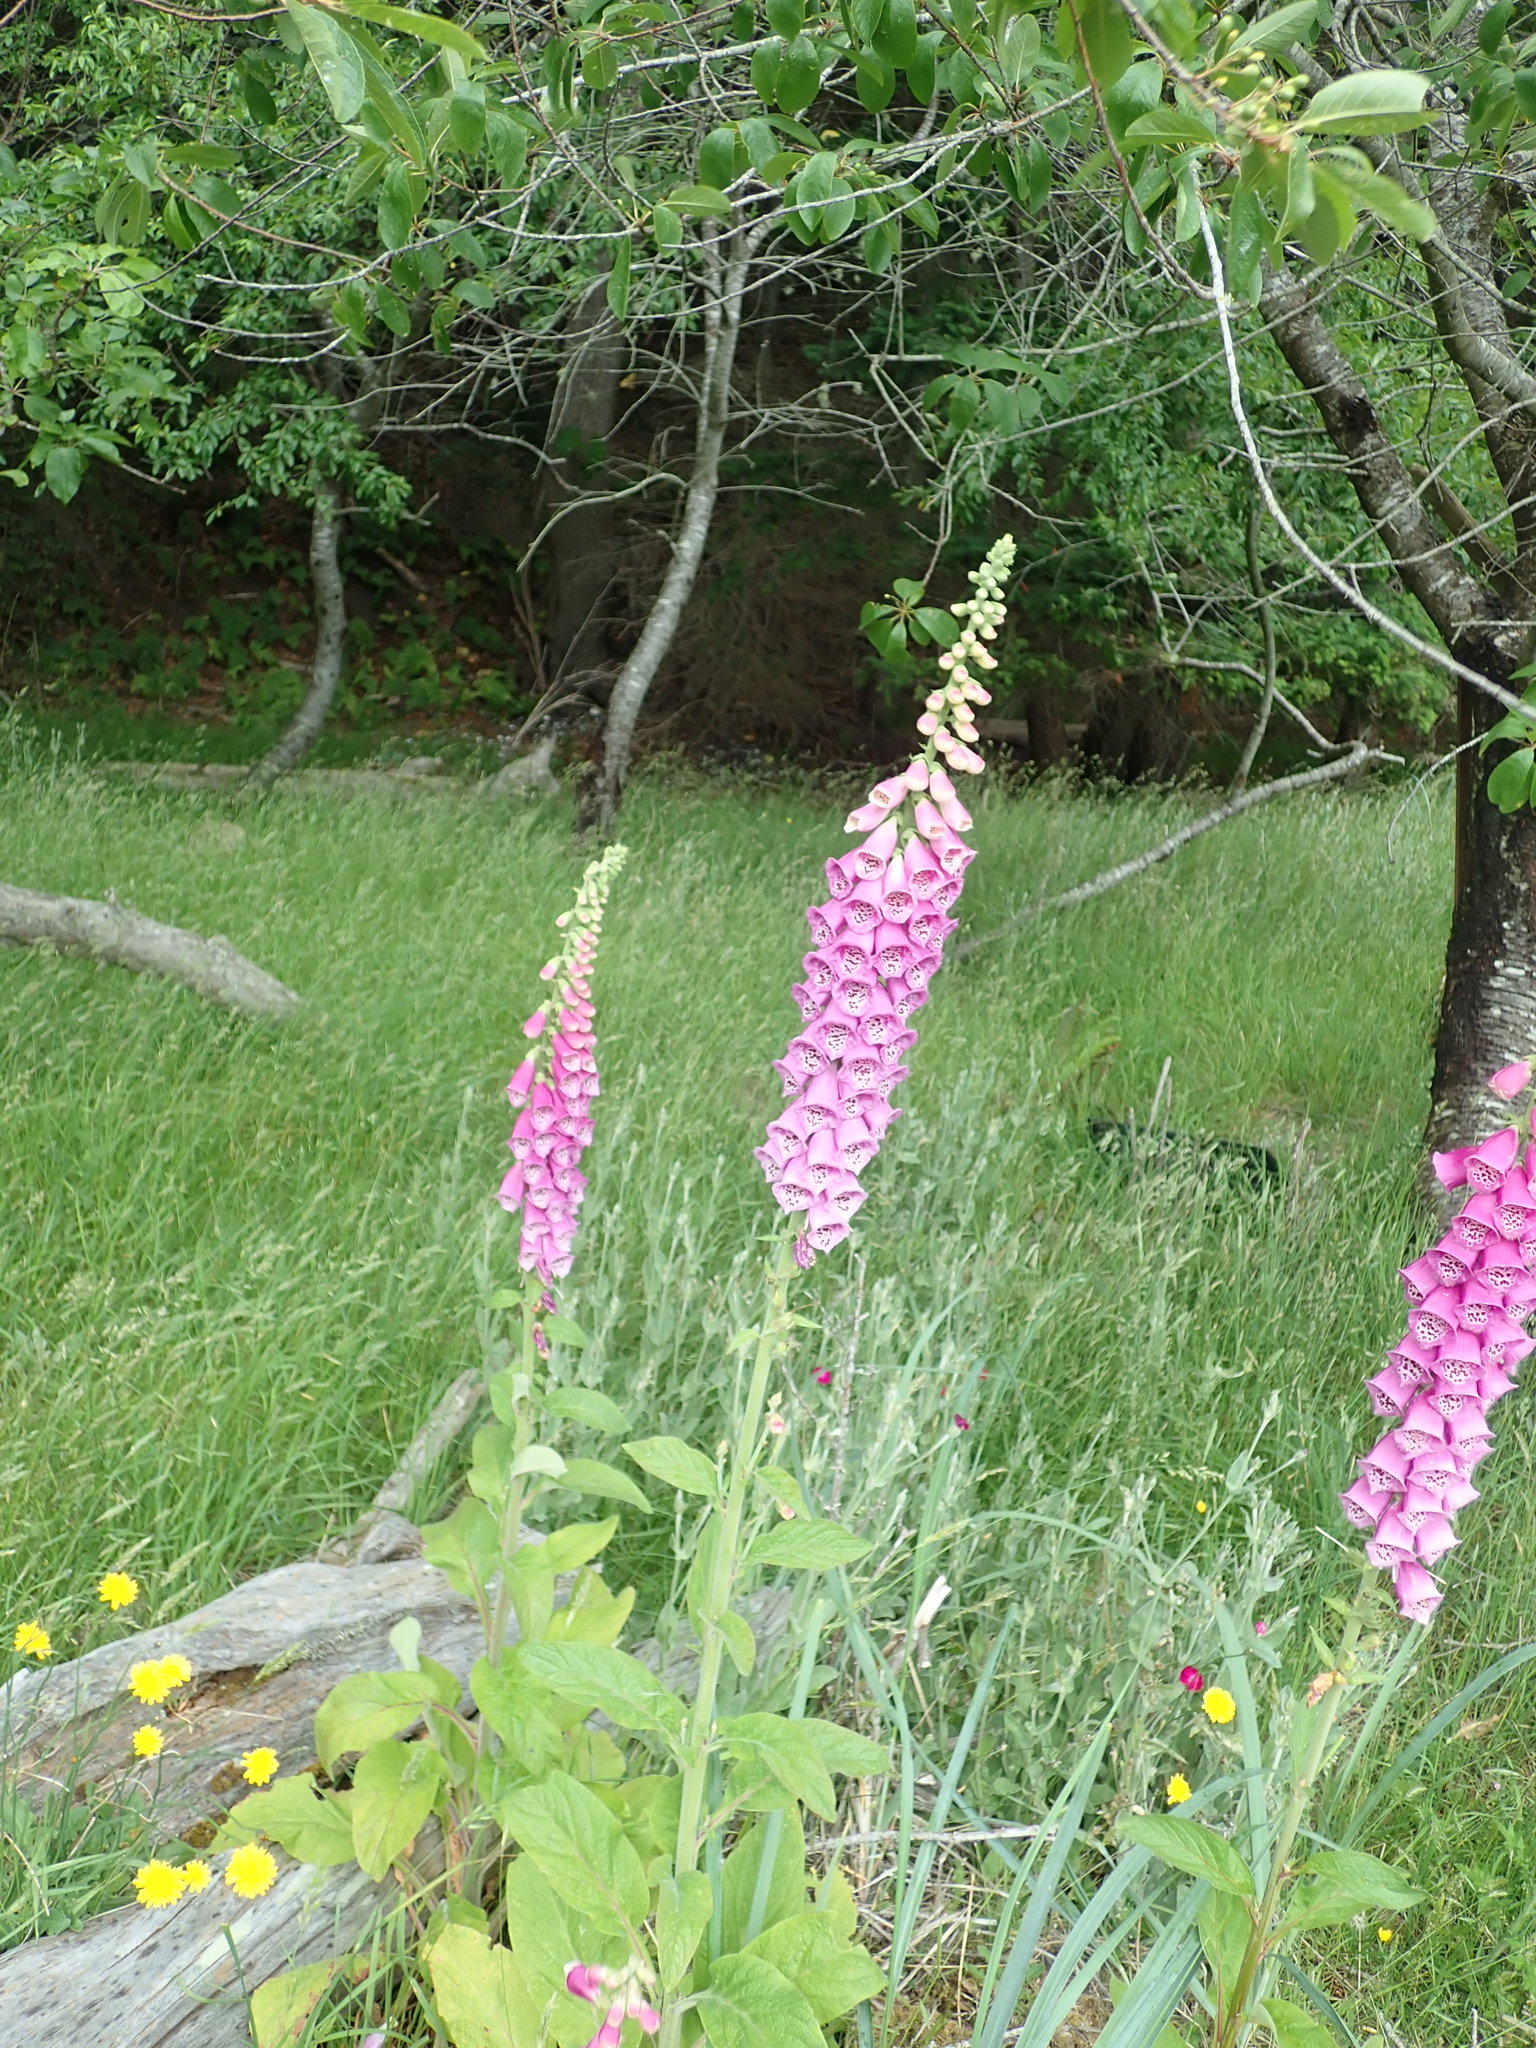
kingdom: Plantae
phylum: Tracheophyta
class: Magnoliopsida
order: Lamiales
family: Plantaginaceae
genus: Digitalis
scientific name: Digitalis purpurea
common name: Foxglove
